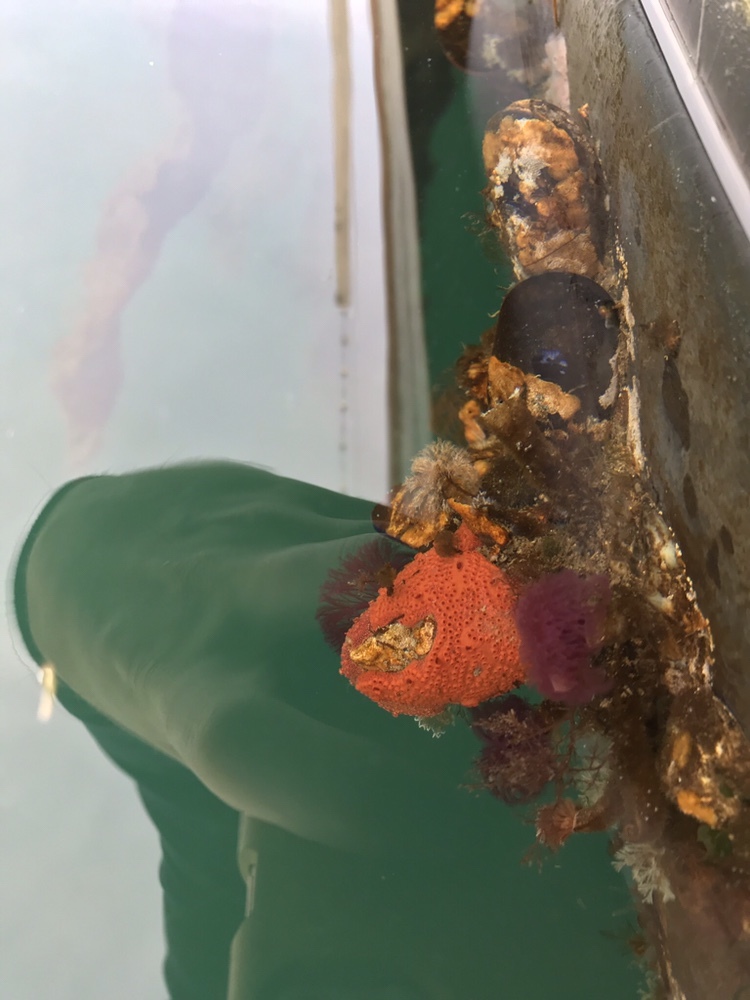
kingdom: Animalia
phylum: Annelida
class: Polychaeta
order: Sabellida
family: Sabellidae
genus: Schizobranchia
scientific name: Schizobranchia insignis
